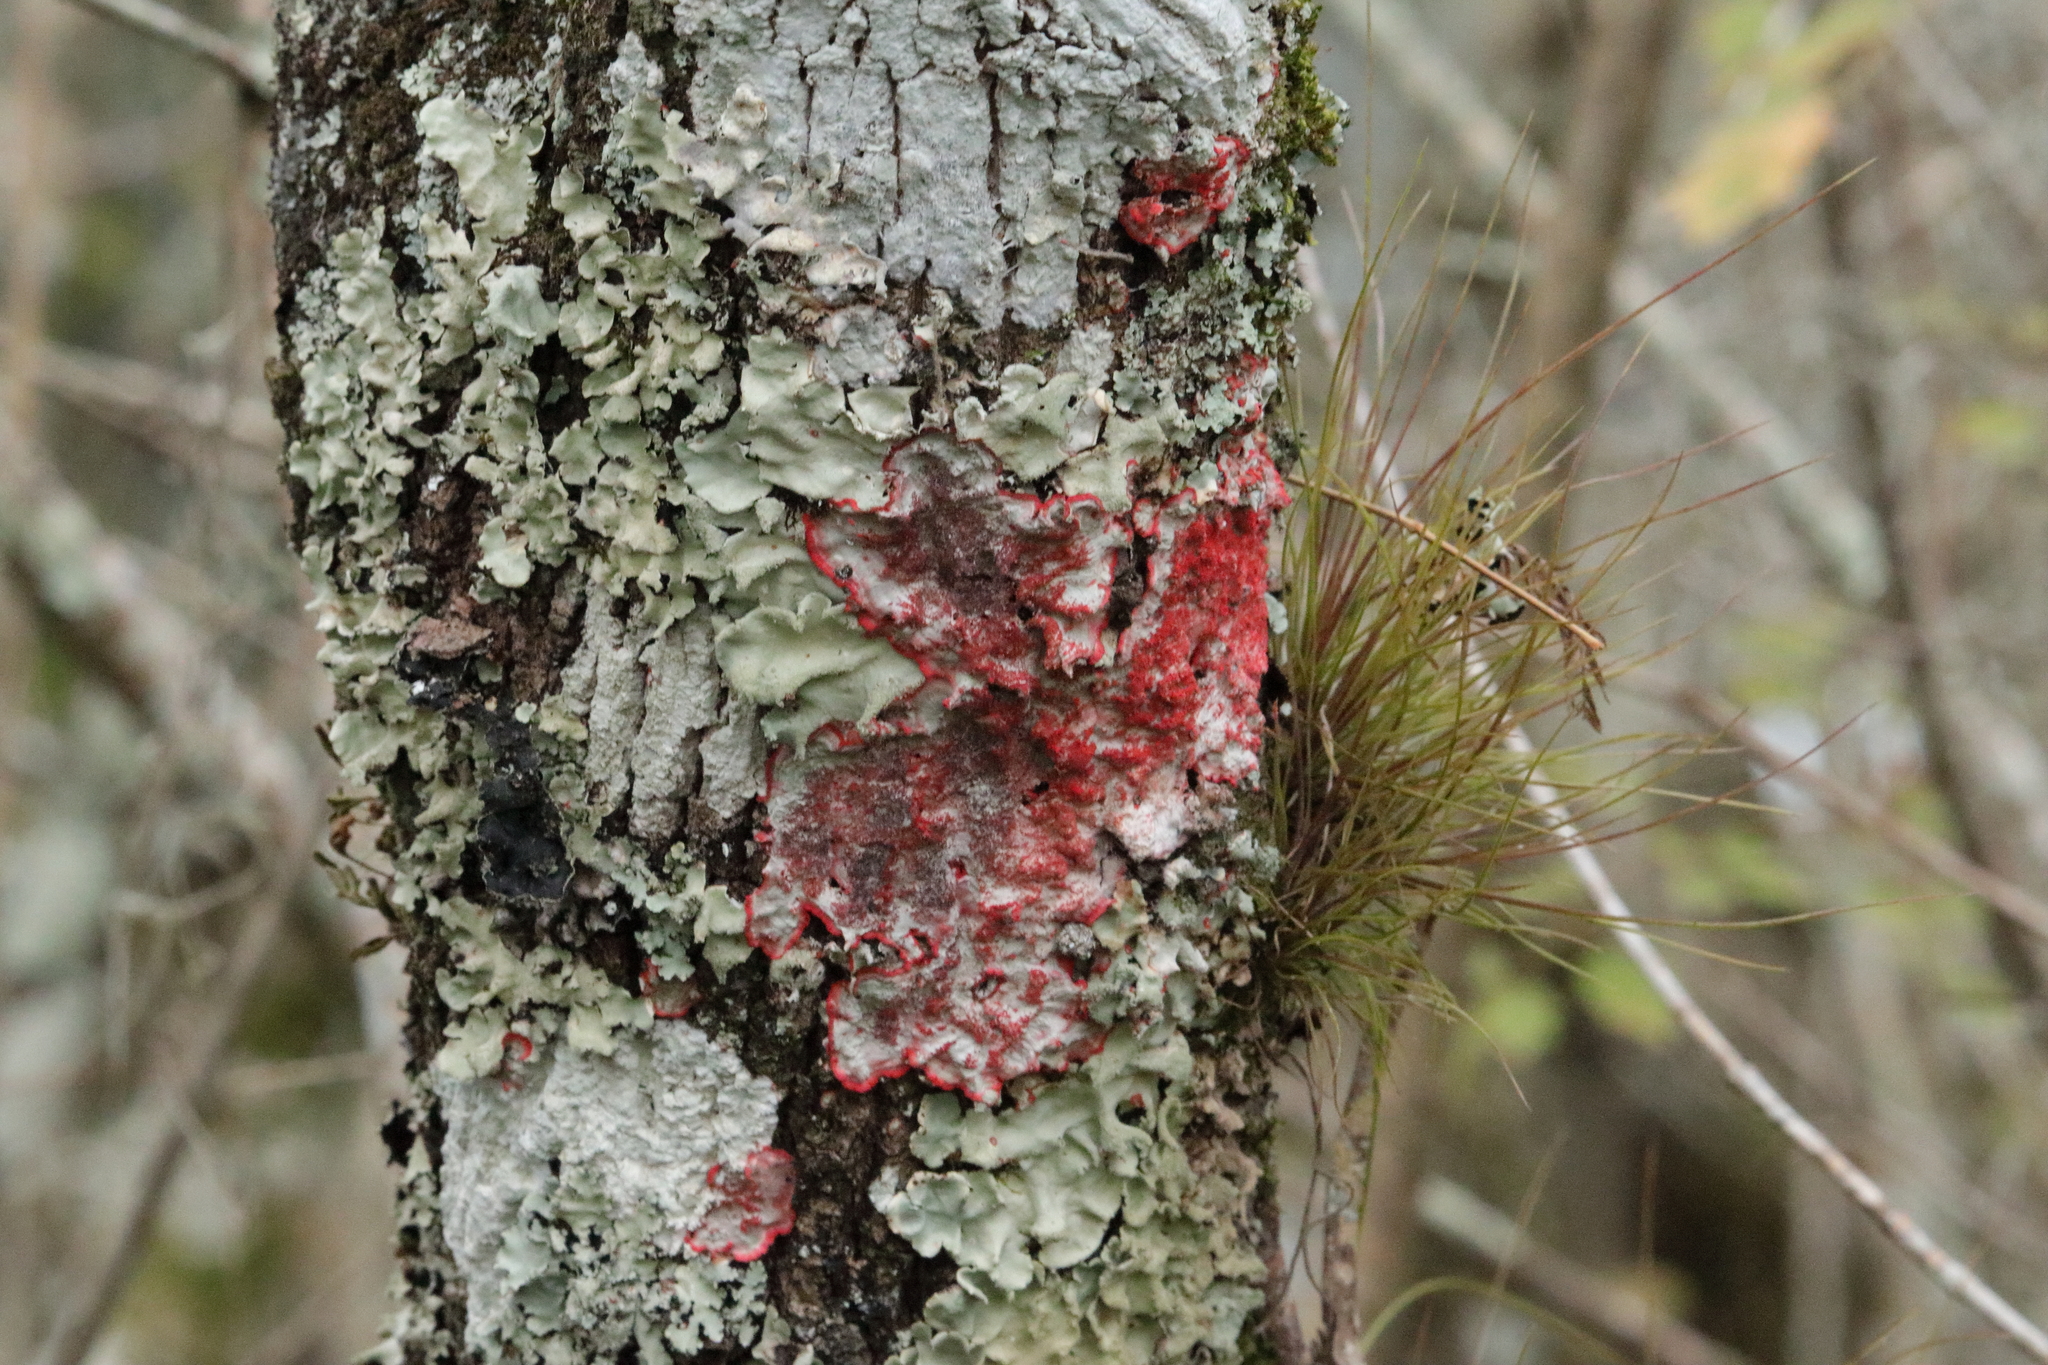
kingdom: Fungi
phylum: Ascomycota
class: Arthoniomycetes
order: Arthoniales
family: Arthoniaceae
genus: Herpothallon
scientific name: Herpothallon rubrocinctum
